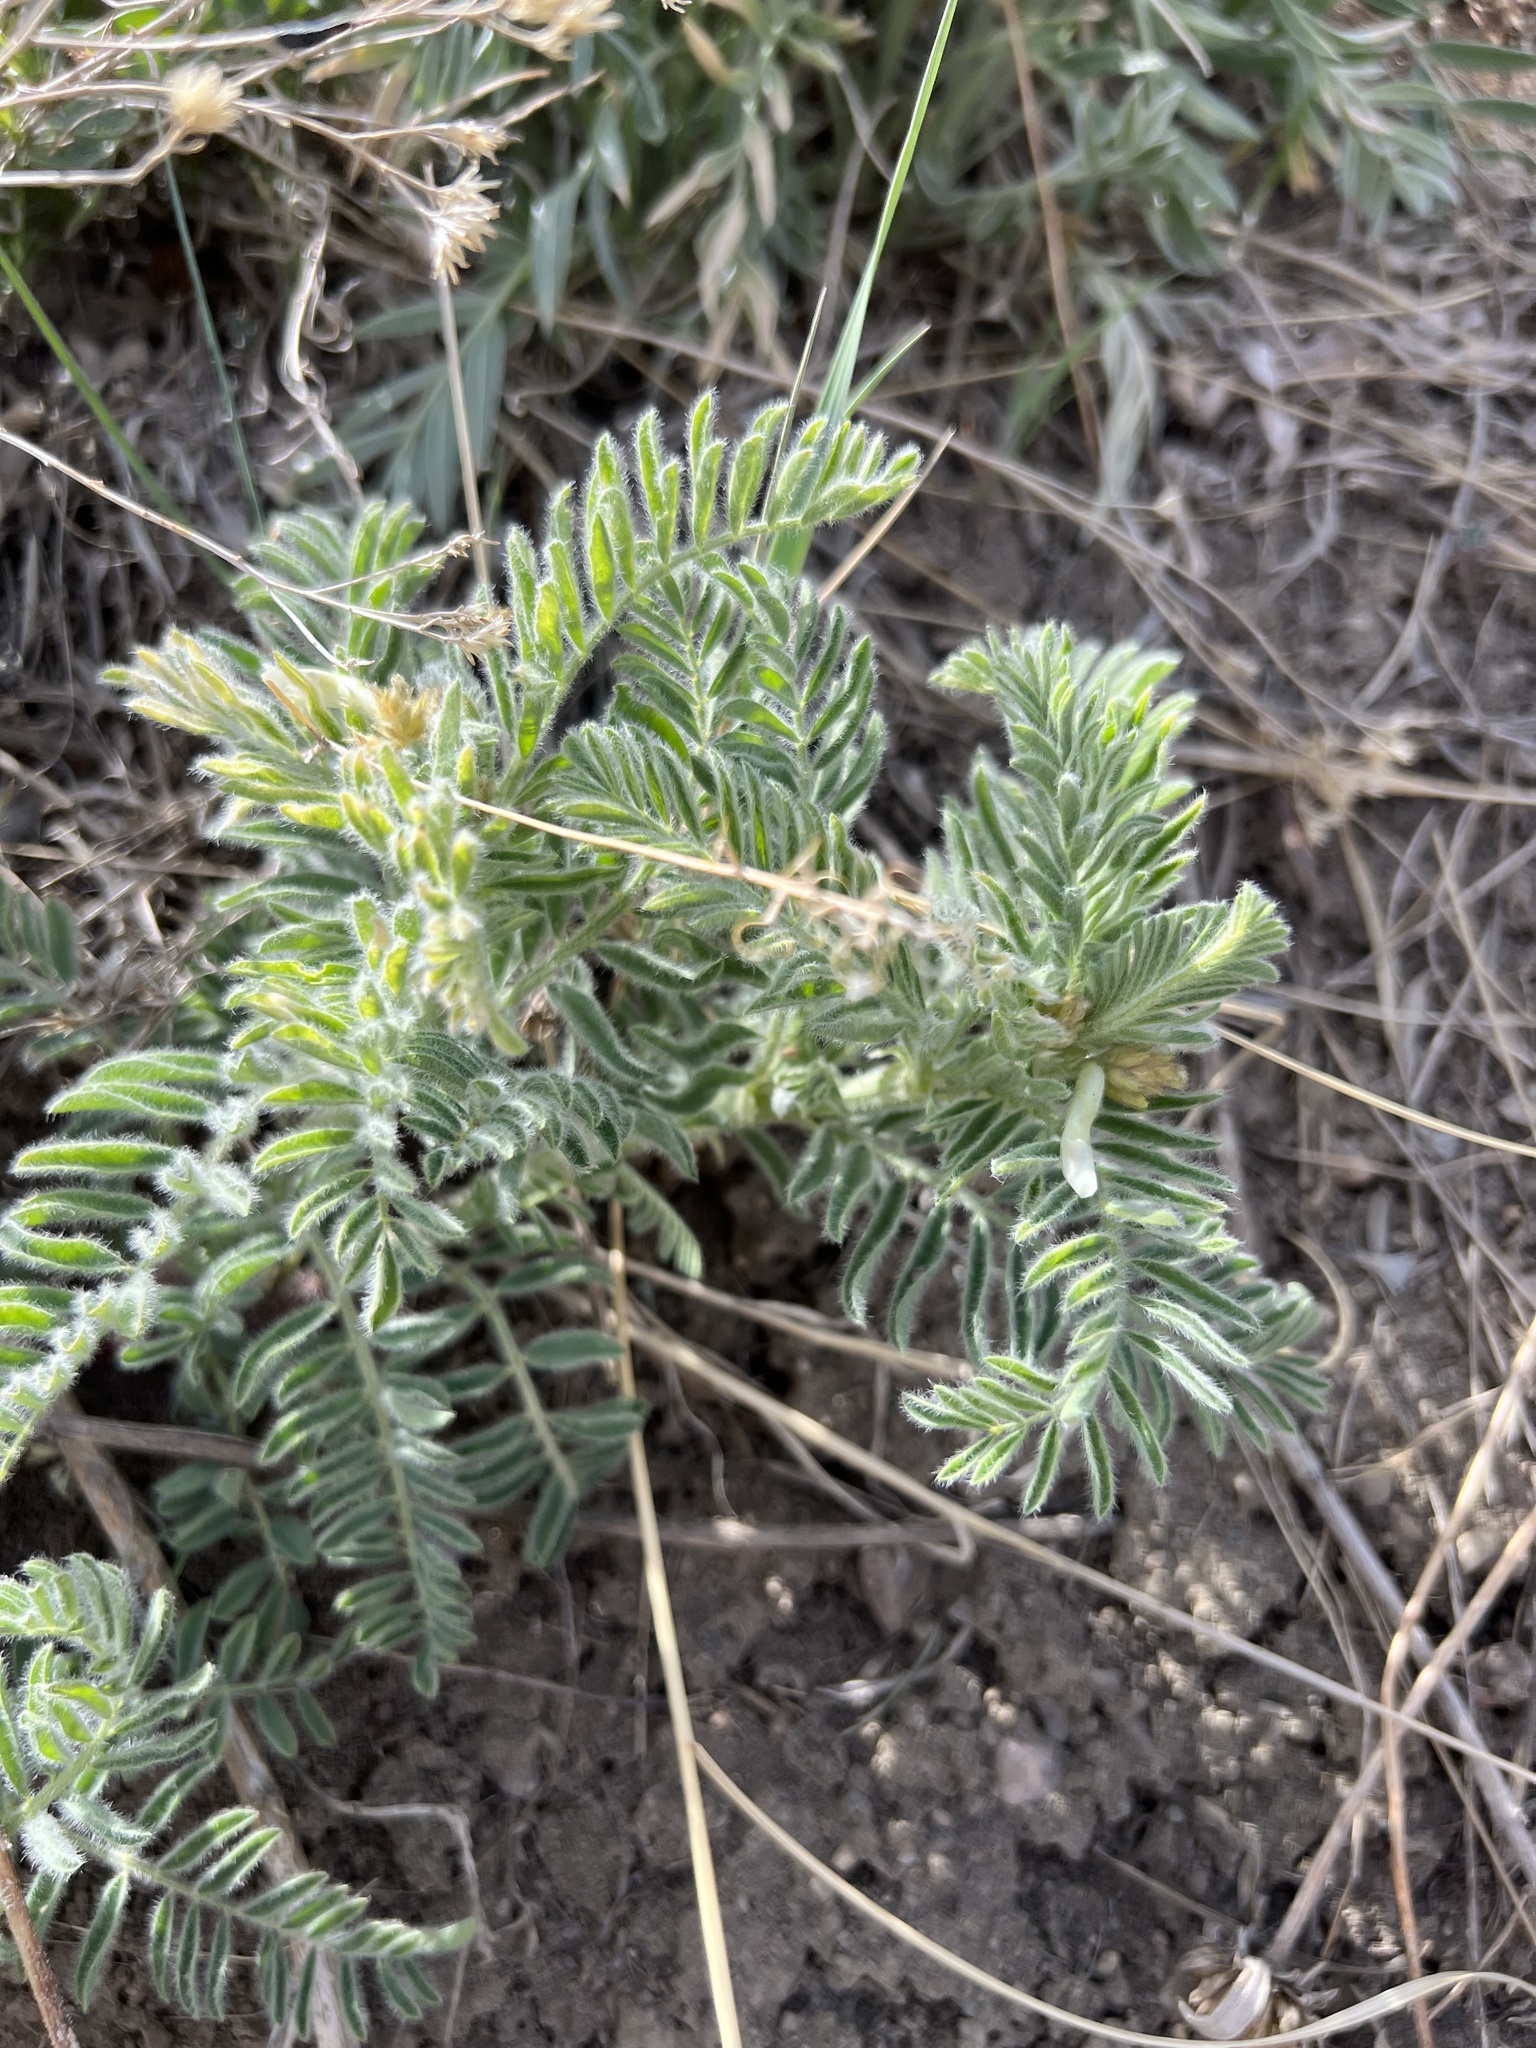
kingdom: Plantae
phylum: Tracheophyta
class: Magnoliopsida
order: Fabales
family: Fabaceae
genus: Astragalus
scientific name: Astragalus drummondii
